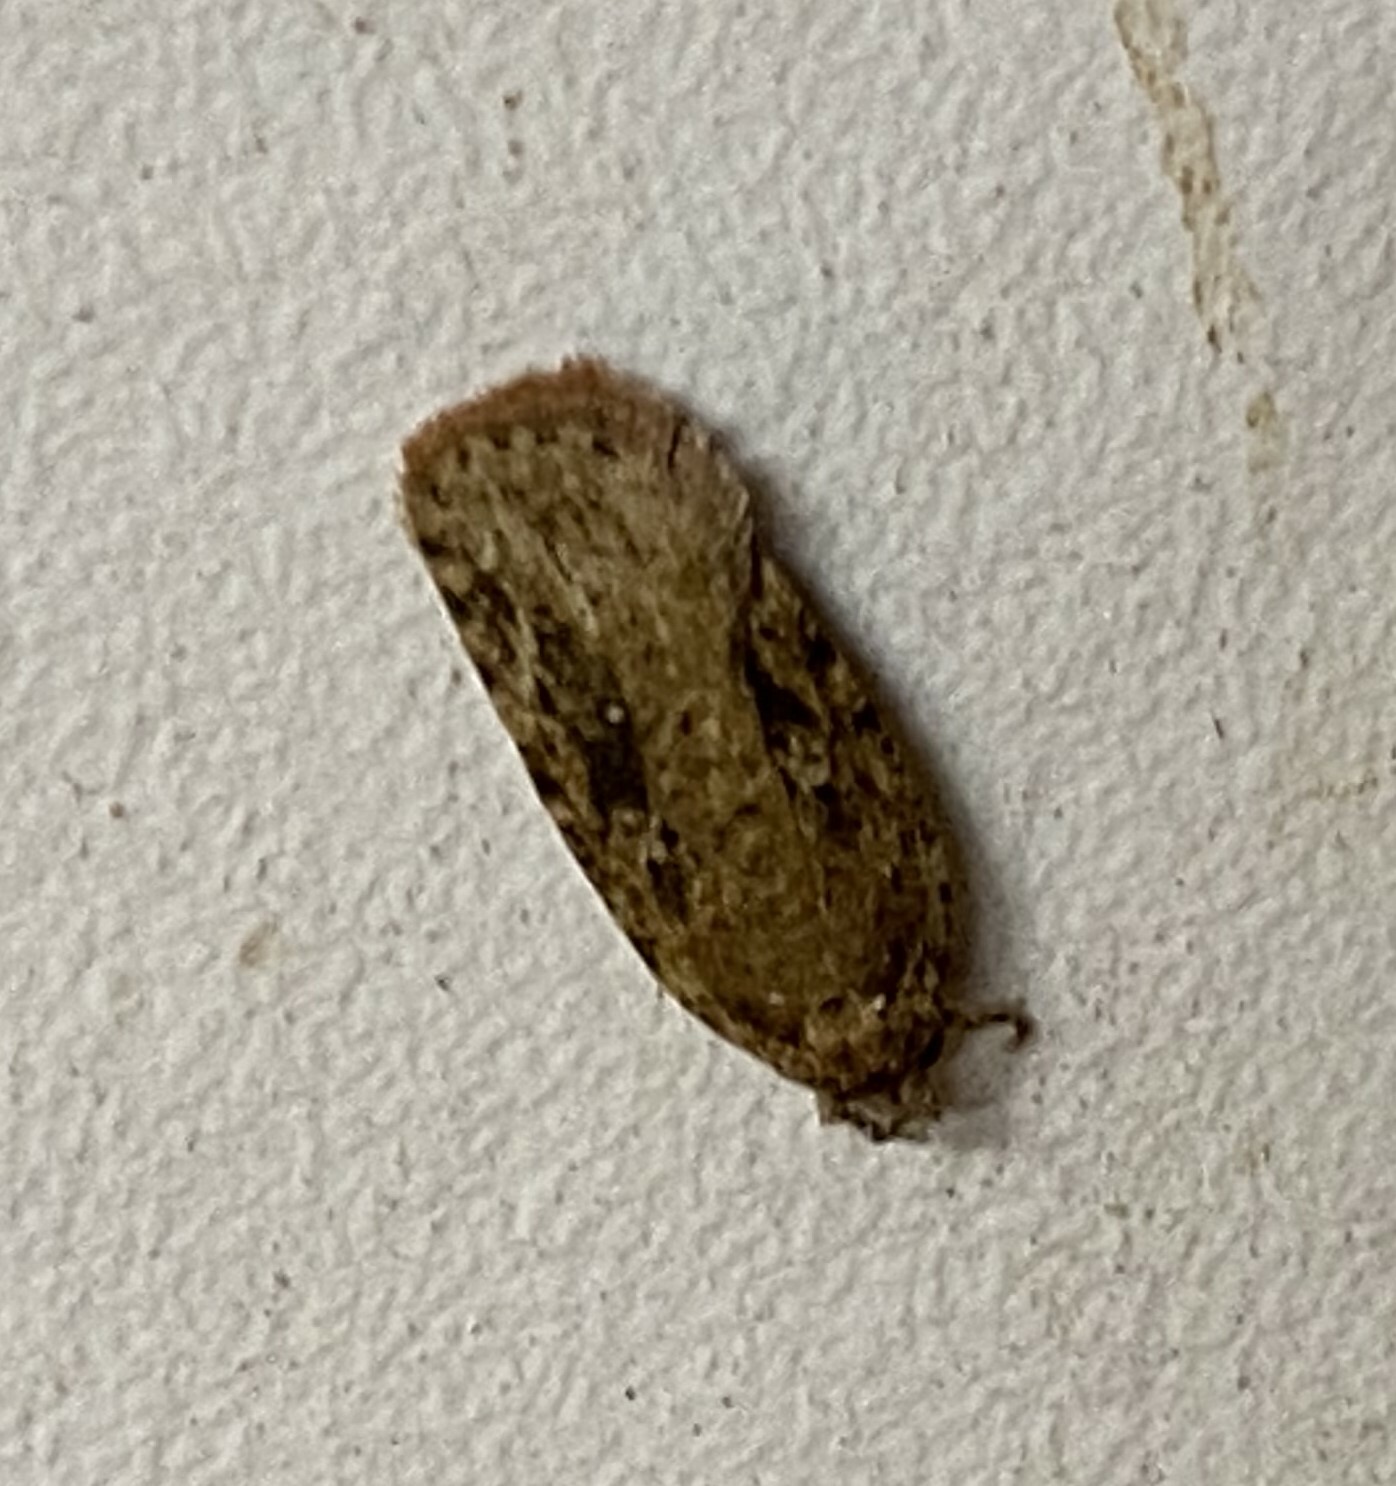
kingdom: Animalia
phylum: Arthropoda
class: Insecta
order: Lepidoptera
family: Depressariidae
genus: Agonopterix
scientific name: Agonopterix pulvipennella
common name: Goldenrod leafffolder
